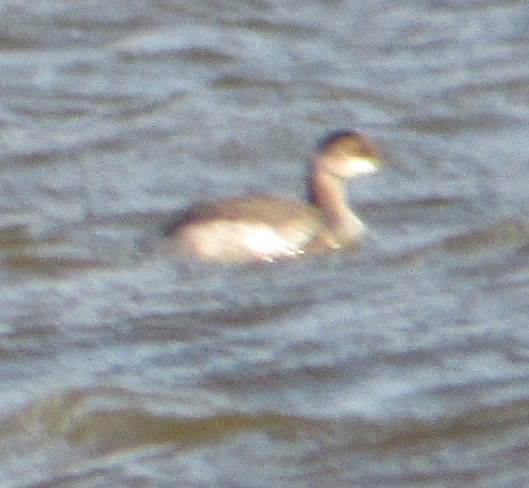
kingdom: Animalia
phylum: Chordata
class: Aves
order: Podicipediformes
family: Podicipedidae
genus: Podilymbus
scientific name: Podilymbus podiceps
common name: Pied-billed grebe
